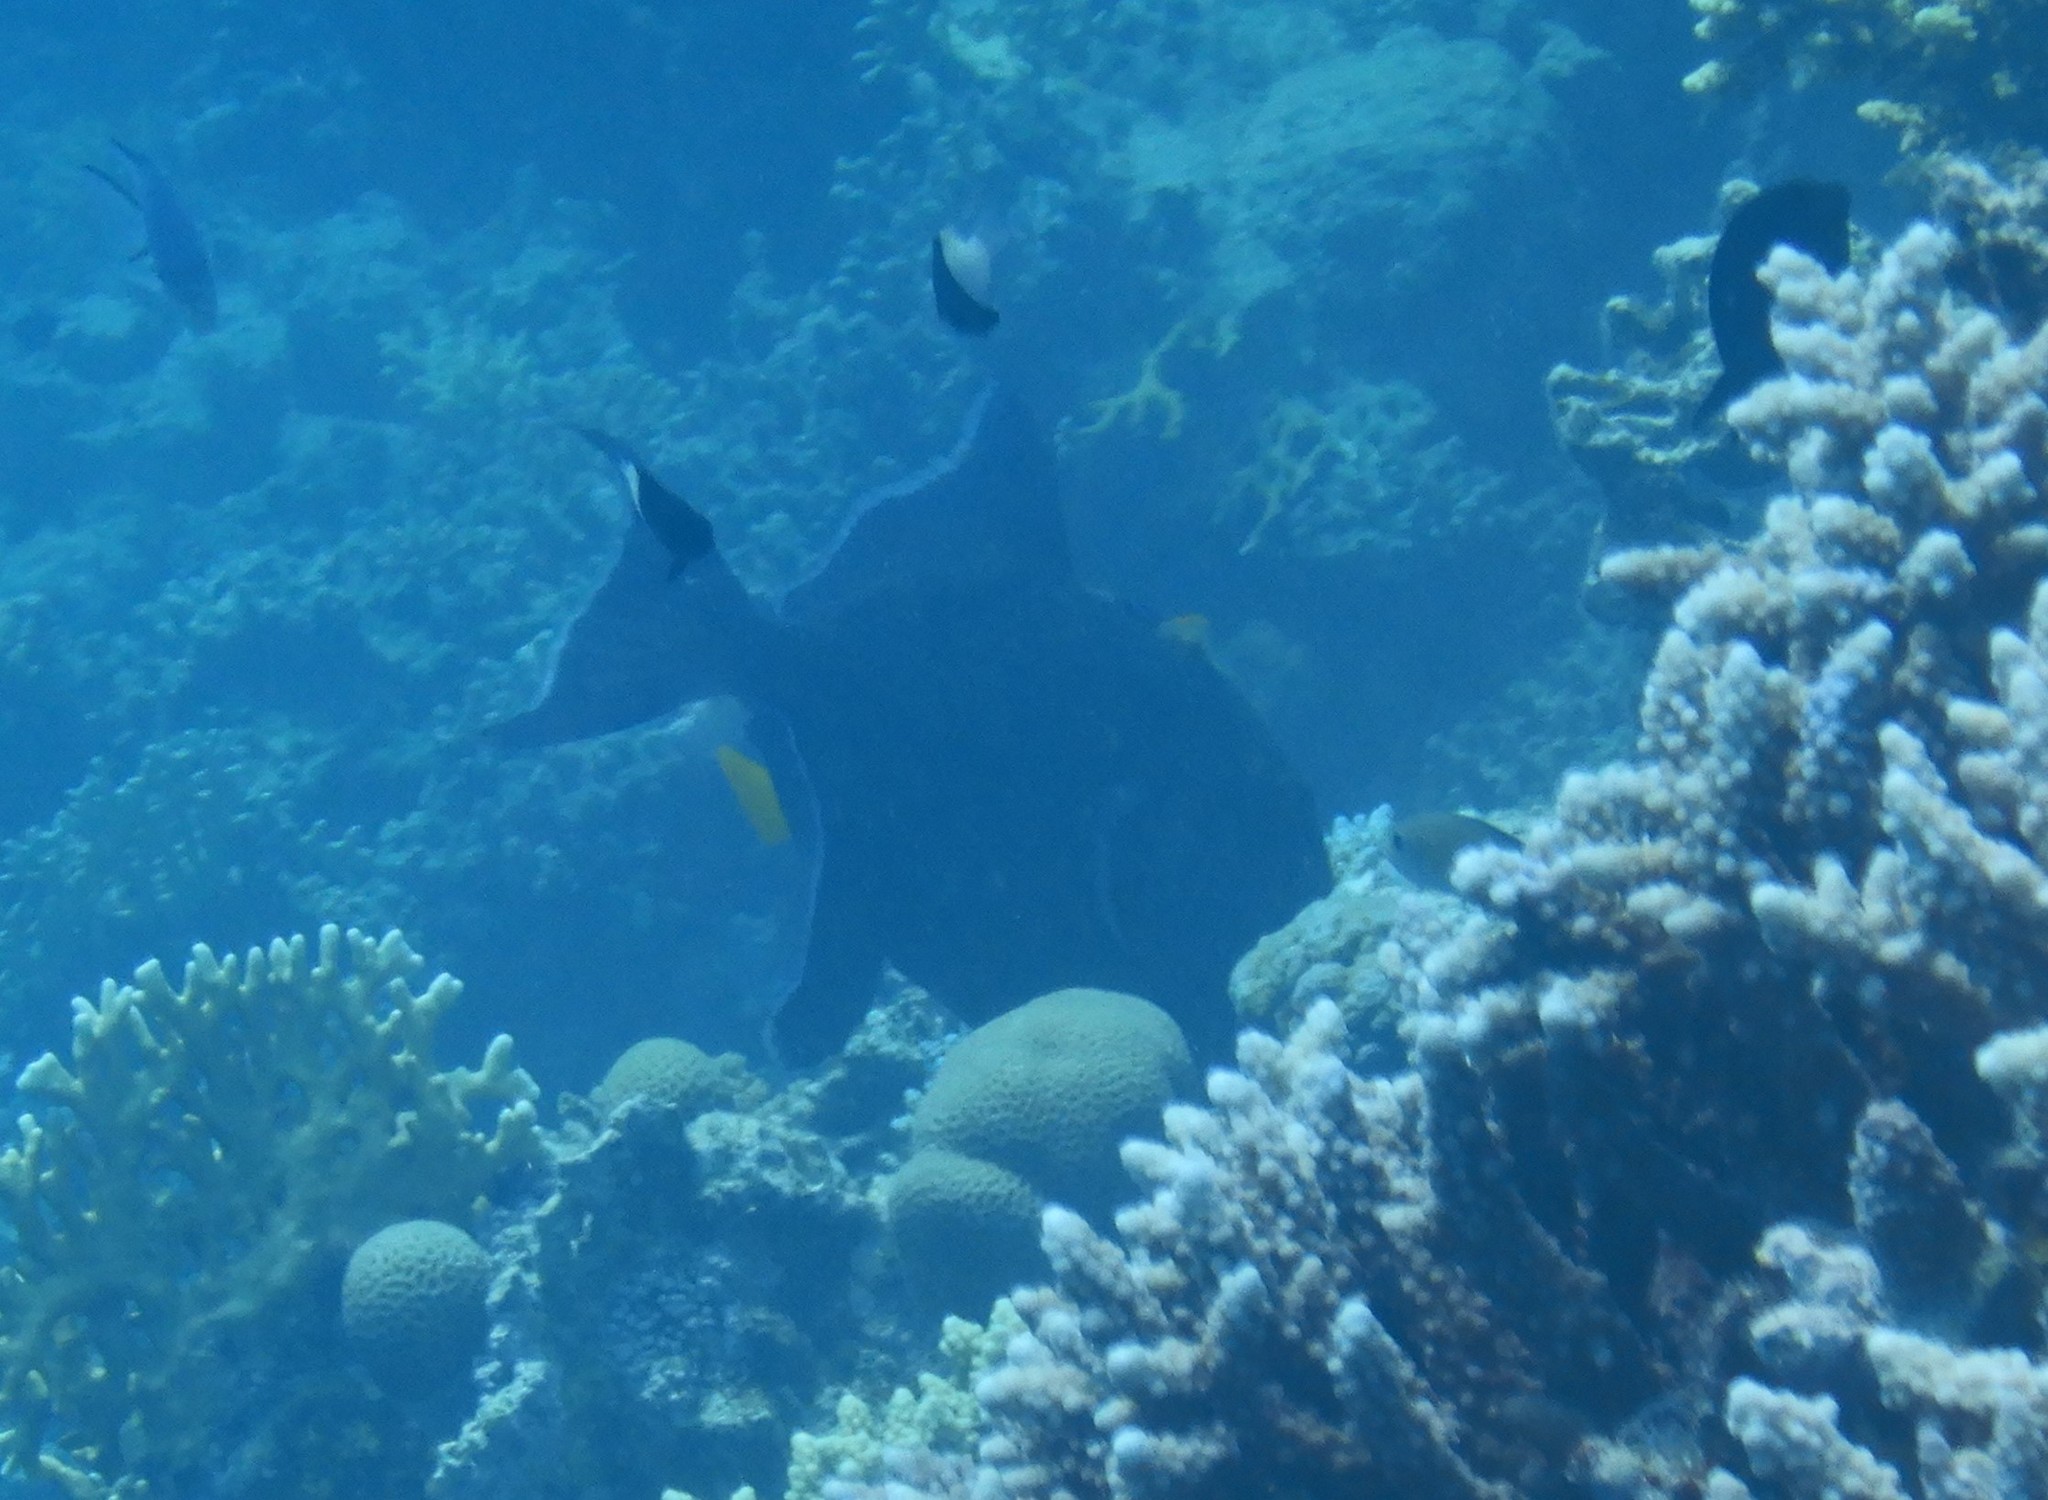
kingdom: Animalia
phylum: Chordata
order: Tetraodontiformes
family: Balistidae
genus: Pseudobalistes
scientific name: Pseudobalistes fuscus
